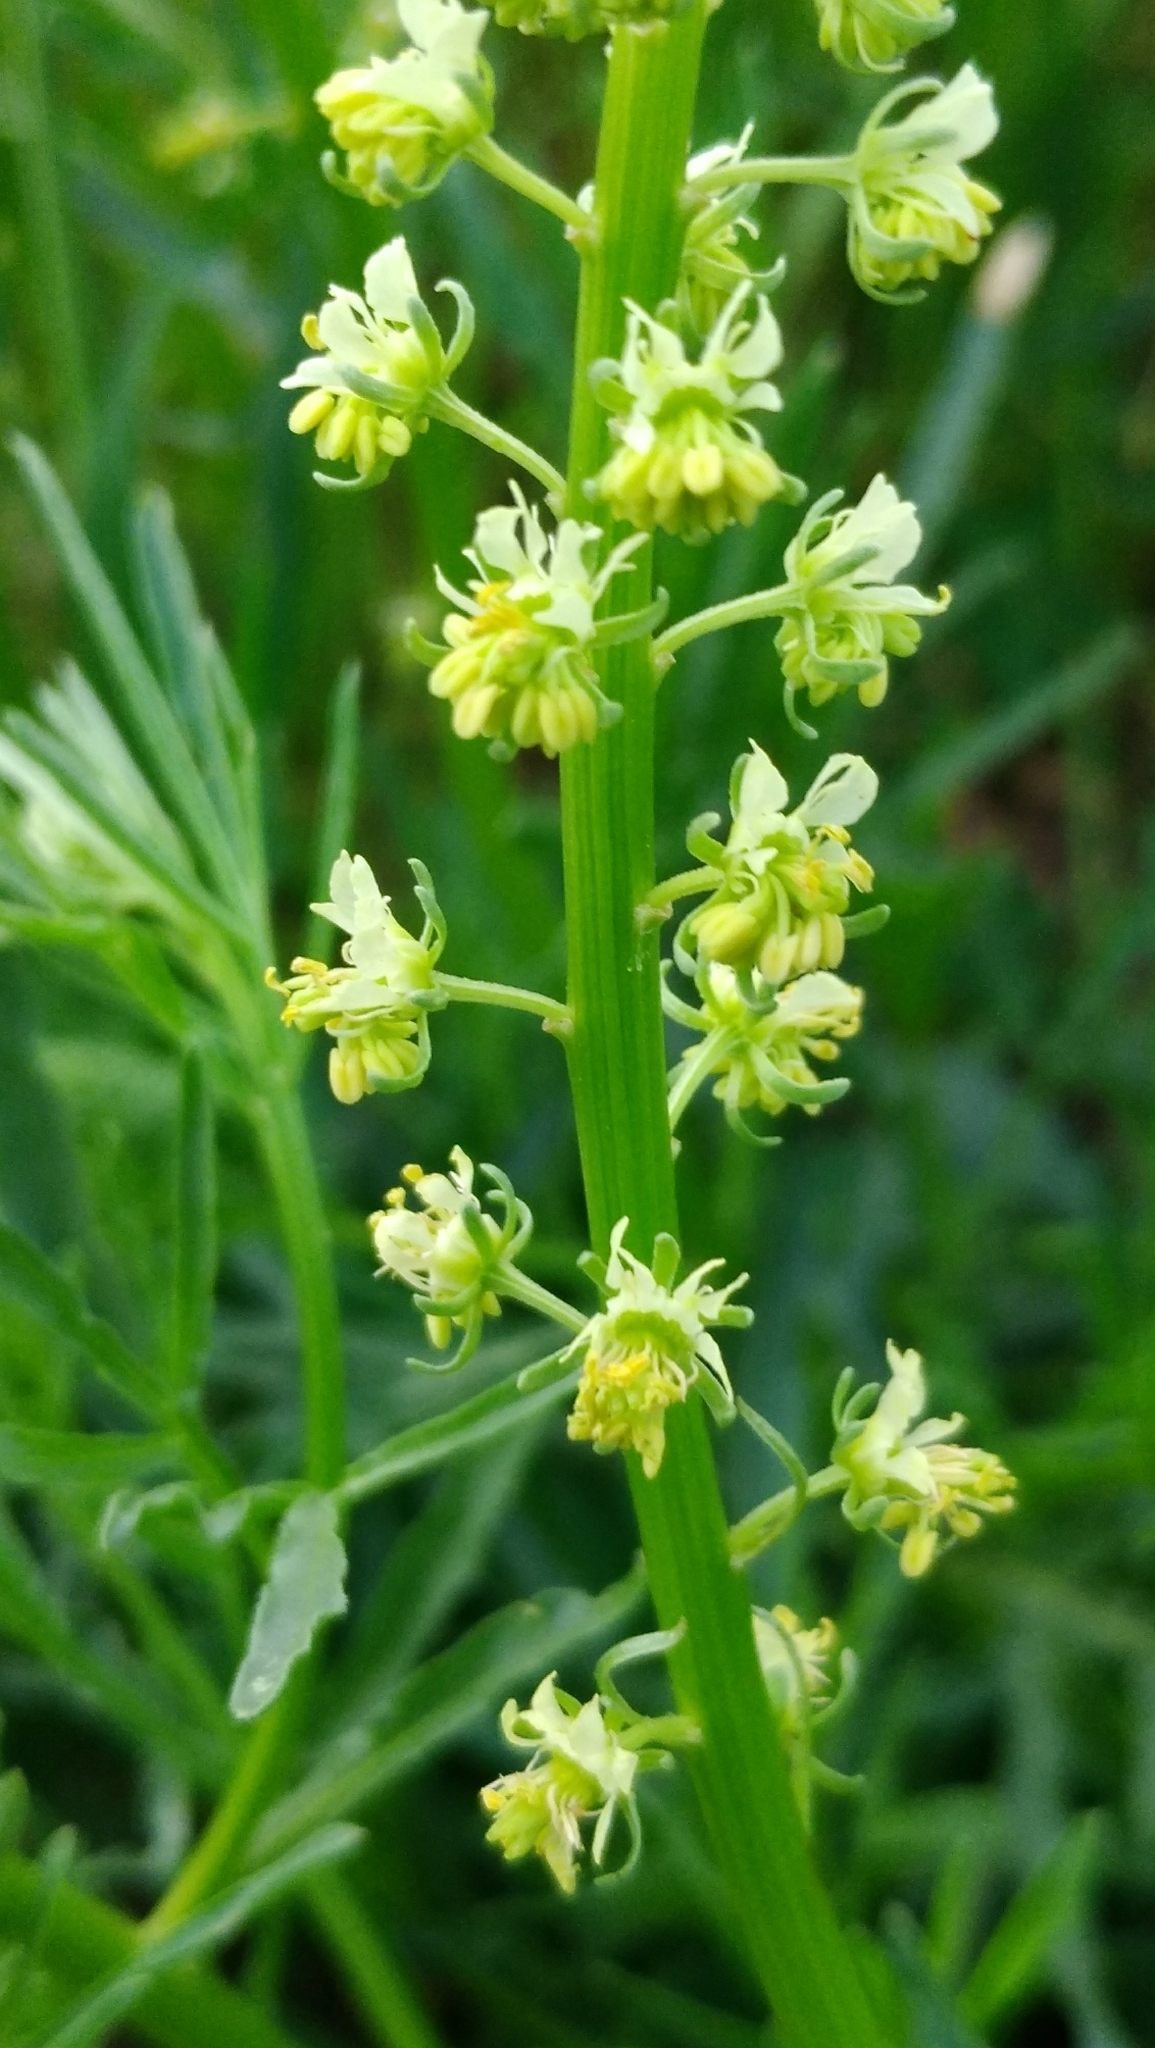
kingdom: Plantae
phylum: Tracheophyta
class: Magnoliopsida
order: Brassicales
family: Resedaceae
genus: Reseda
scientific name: Reseda lutea
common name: Wild mignonette
